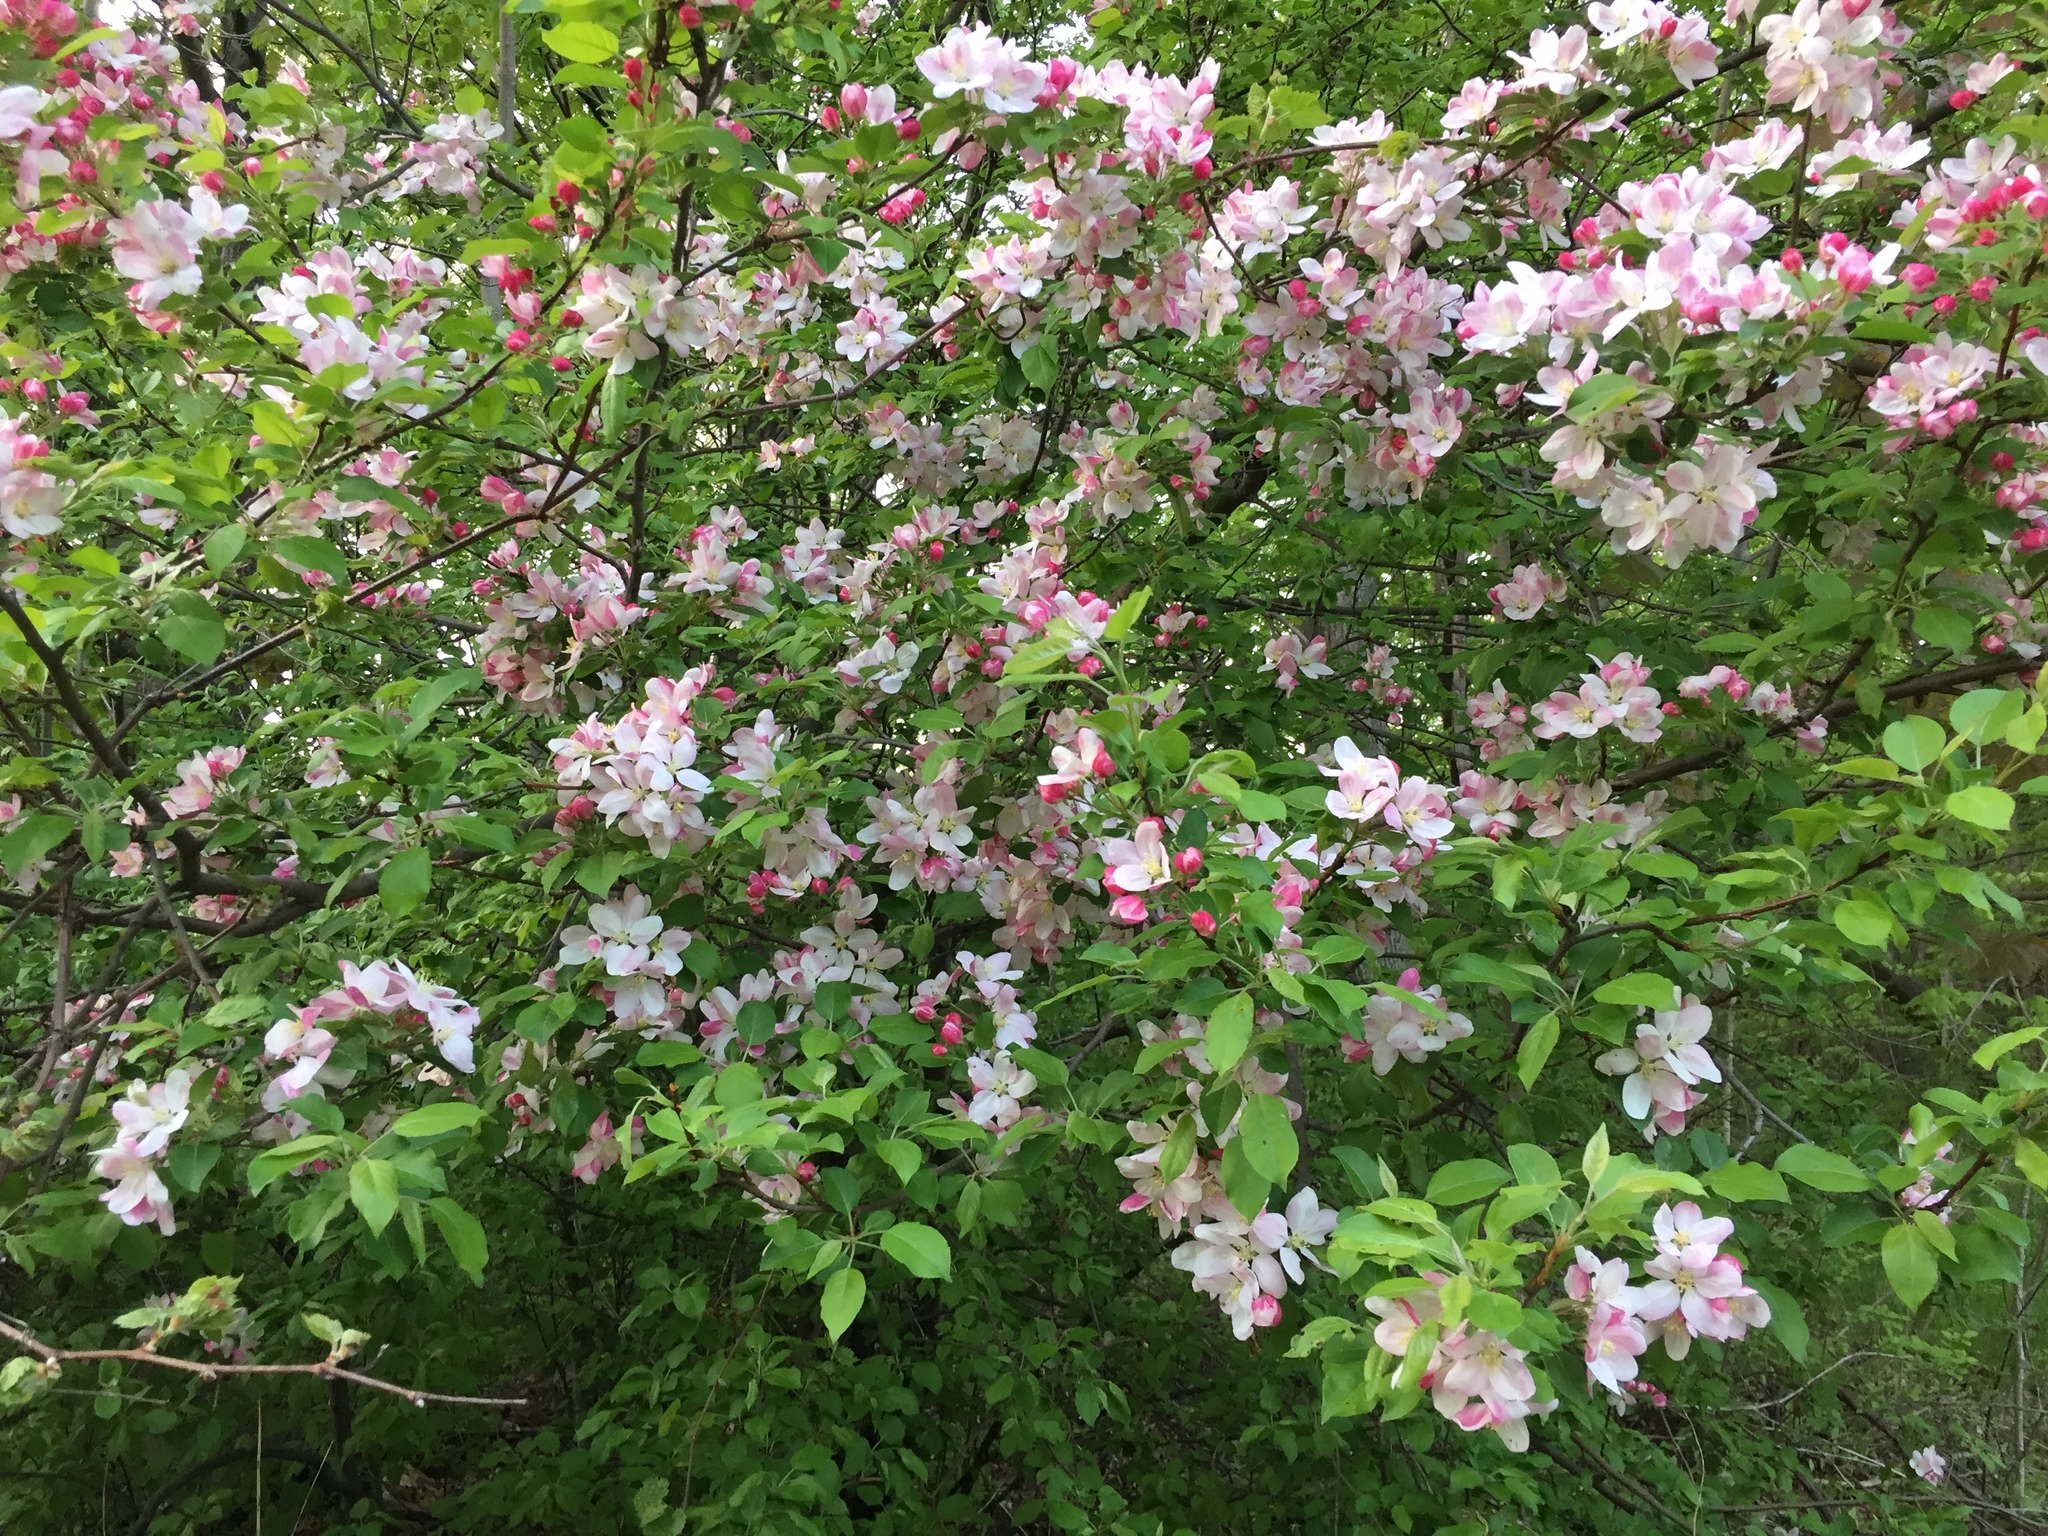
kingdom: Plantae
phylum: Tracheophyta
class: Magnoliopsida
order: Rosales
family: Rosaceae
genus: Malus
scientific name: Malus domestica
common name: Apple
